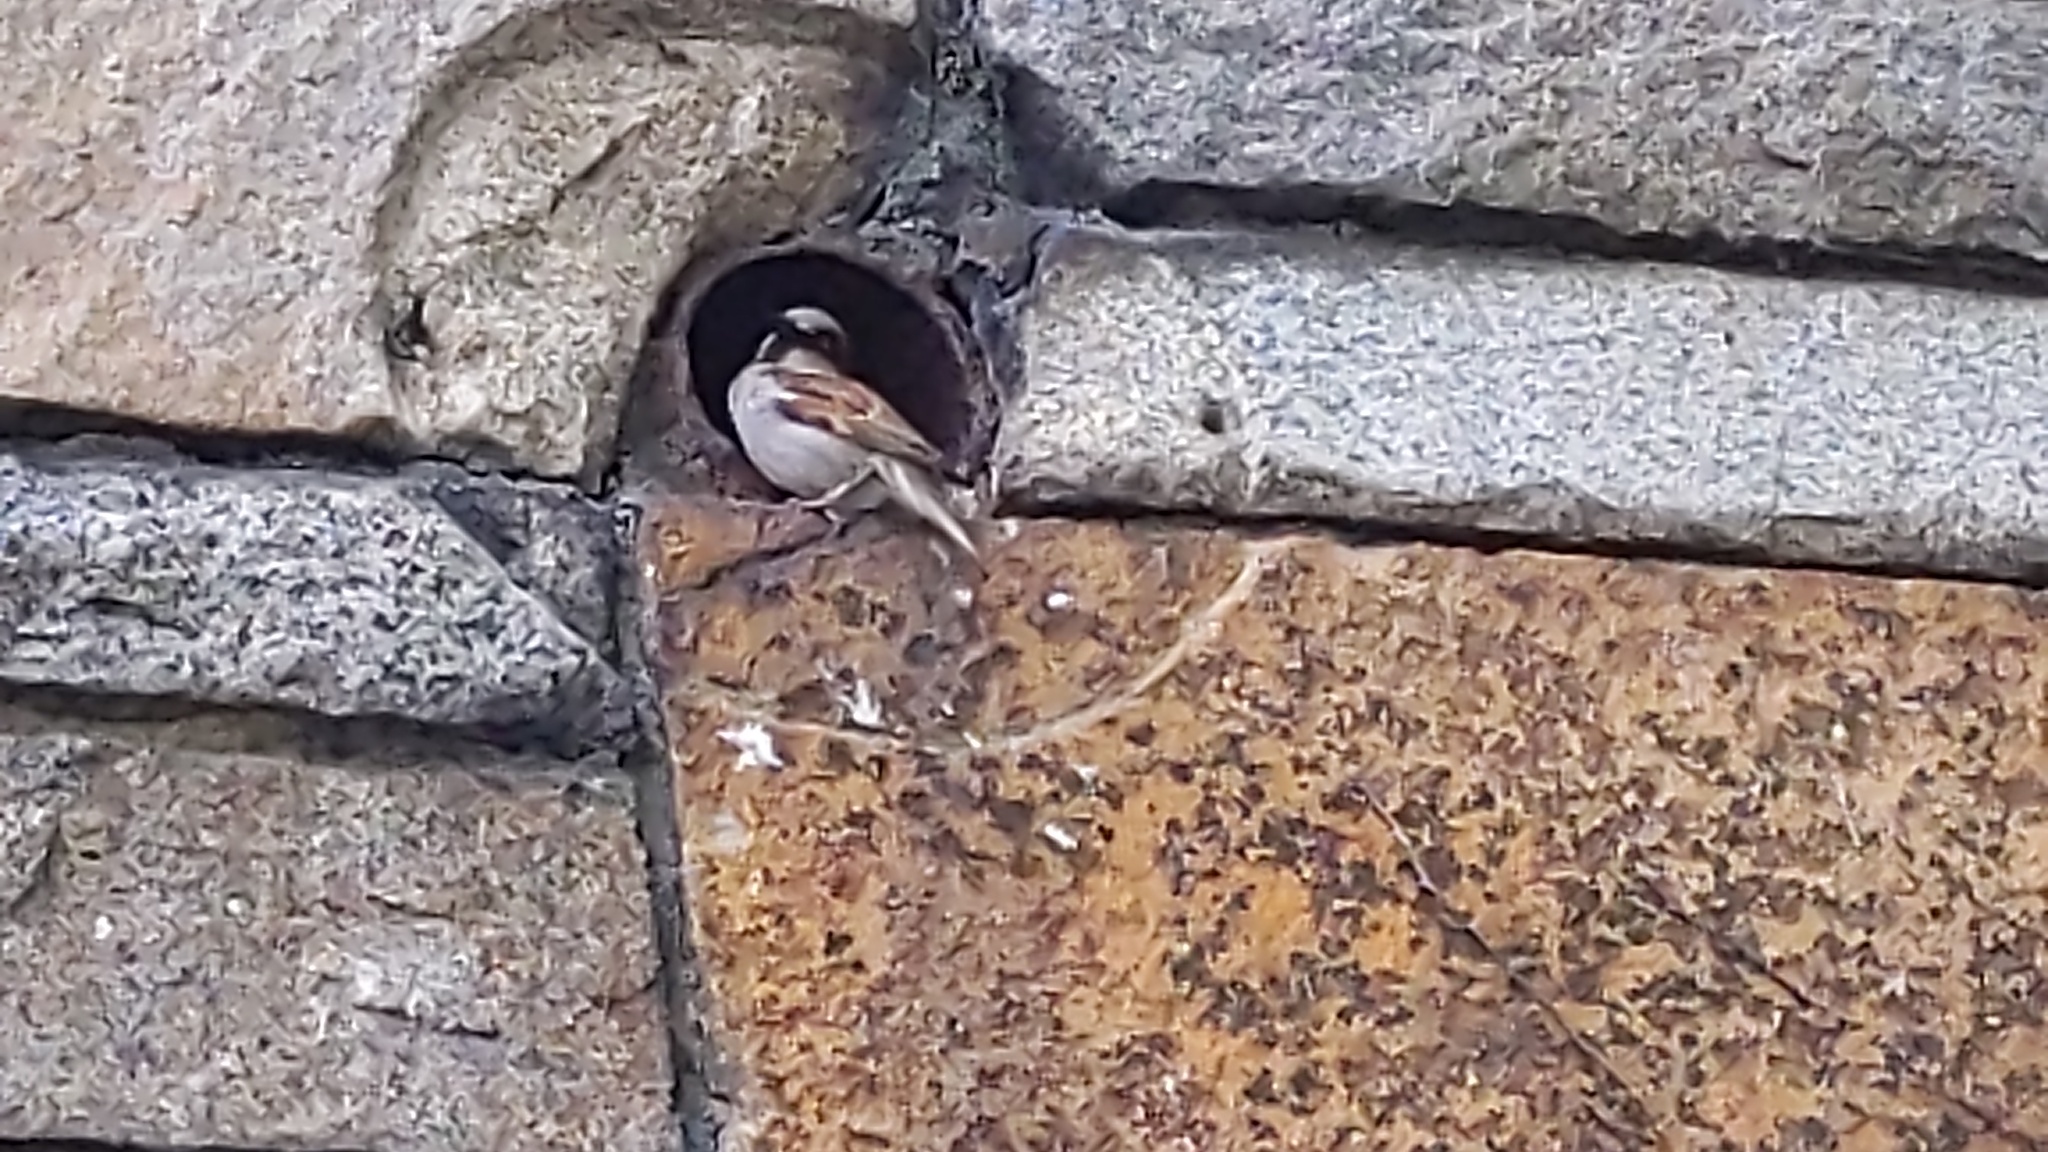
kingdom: Animalia
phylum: Chordata
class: Aves
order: Passeriformes
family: Passeridae
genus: Passer
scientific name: Passer domesticus
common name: House sparrow
